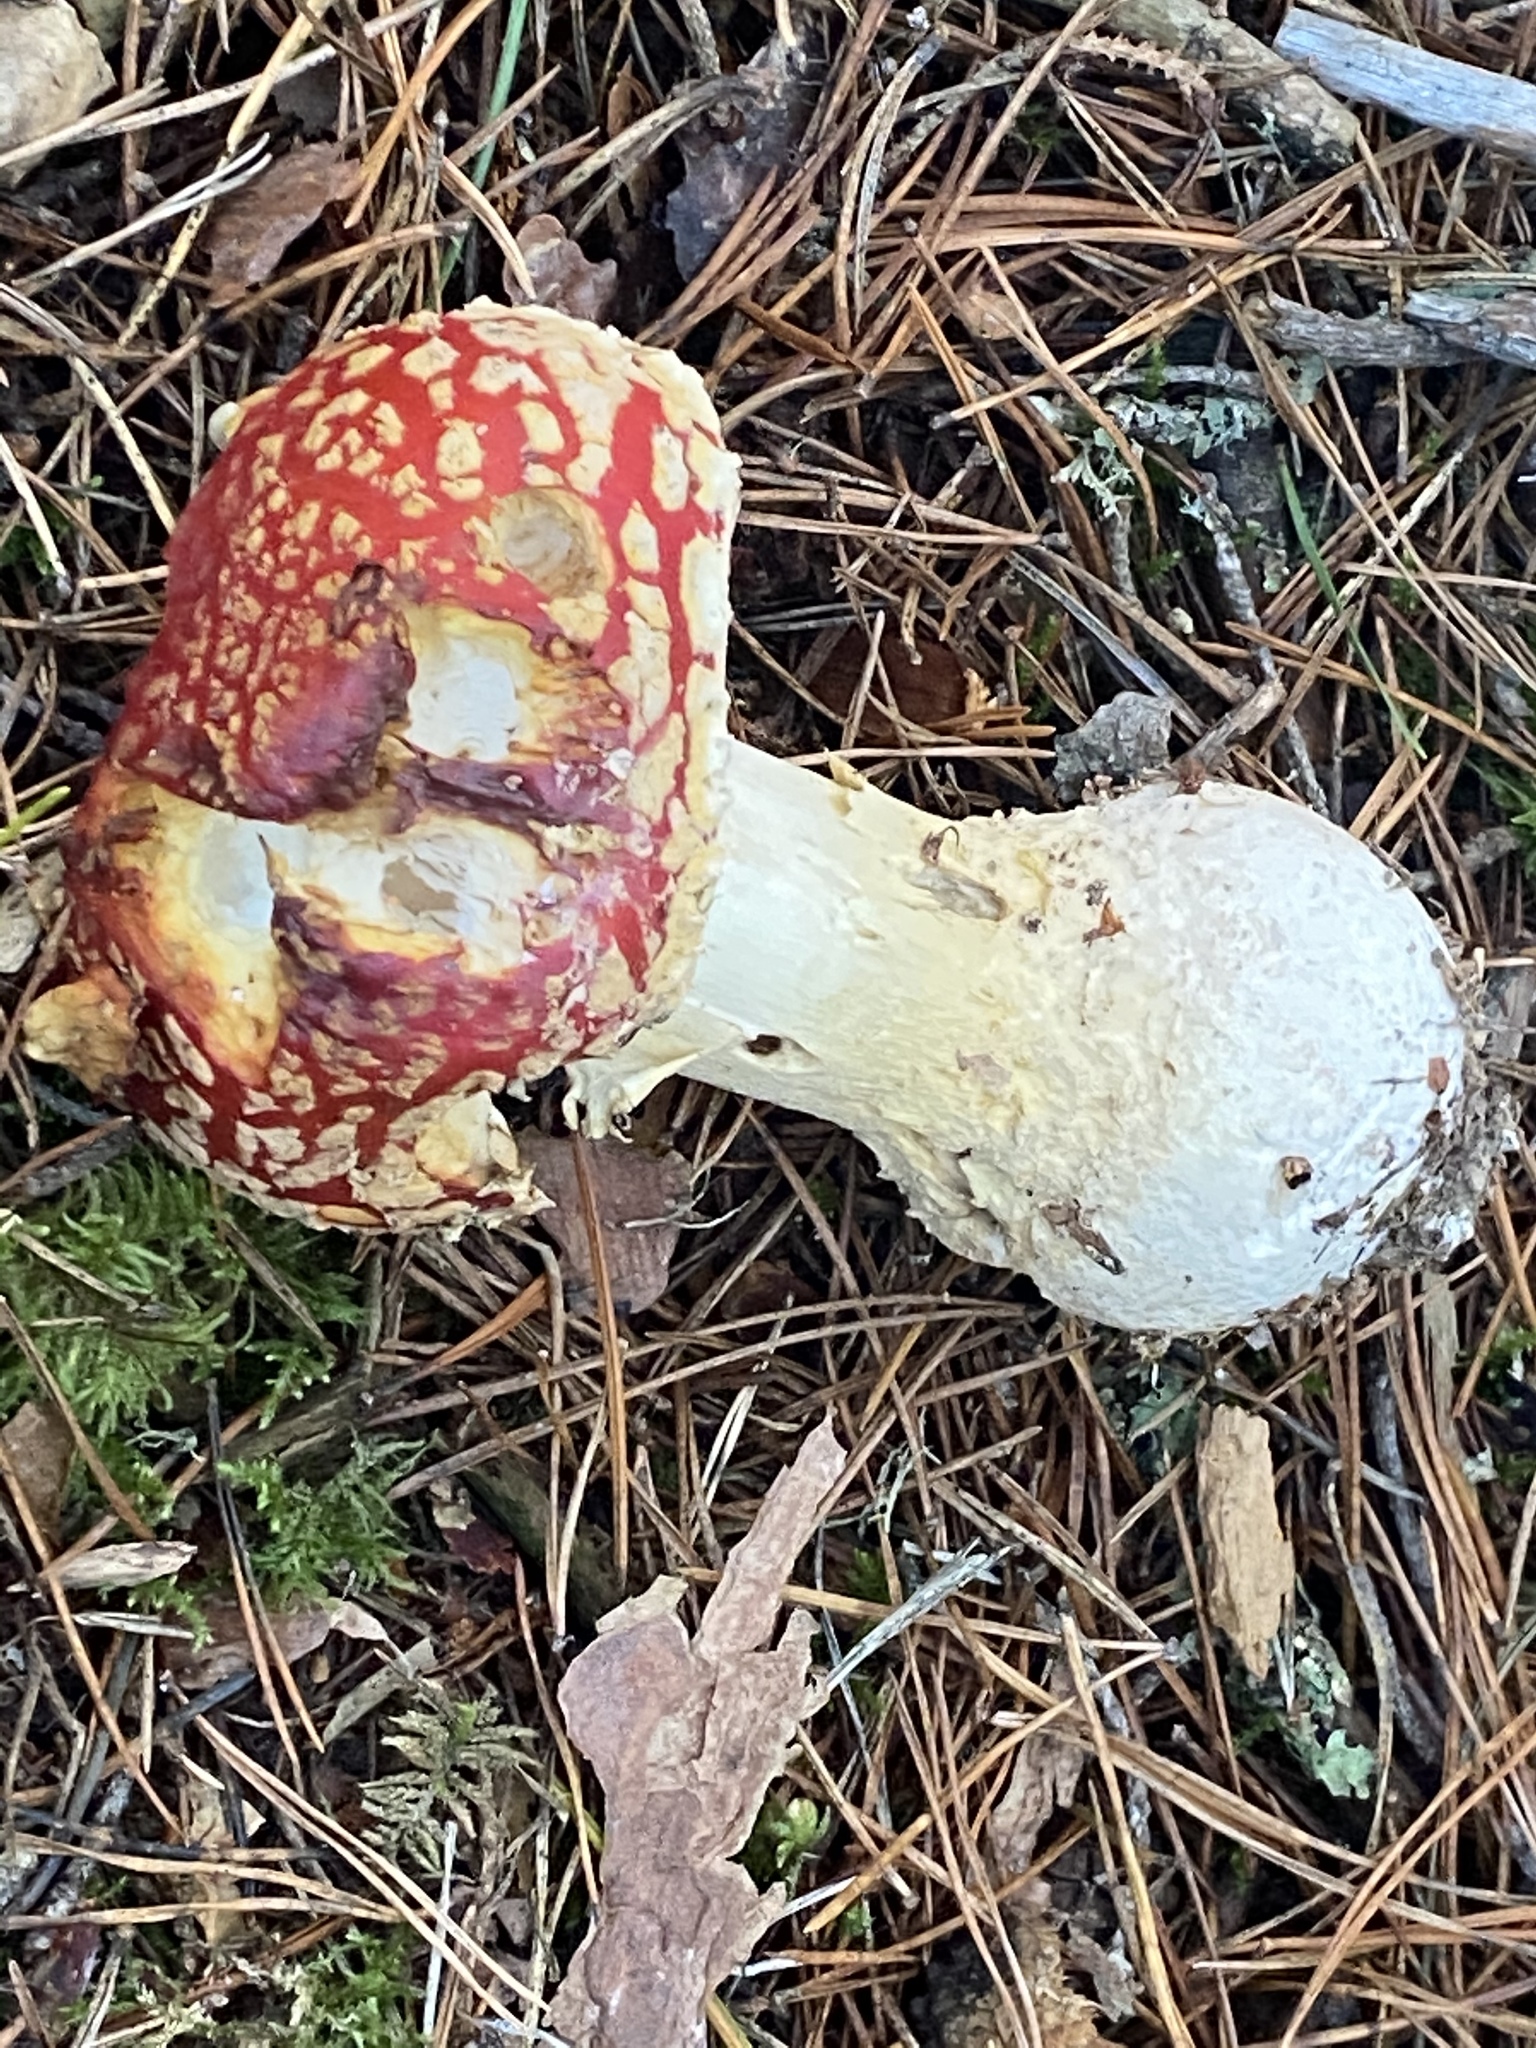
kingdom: Fungi
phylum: Basidiomycota
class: Agaricomycetes
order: Agaricales
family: Amanitaceae
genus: Amanita
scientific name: Amanita muscaria
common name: Fly agaric
